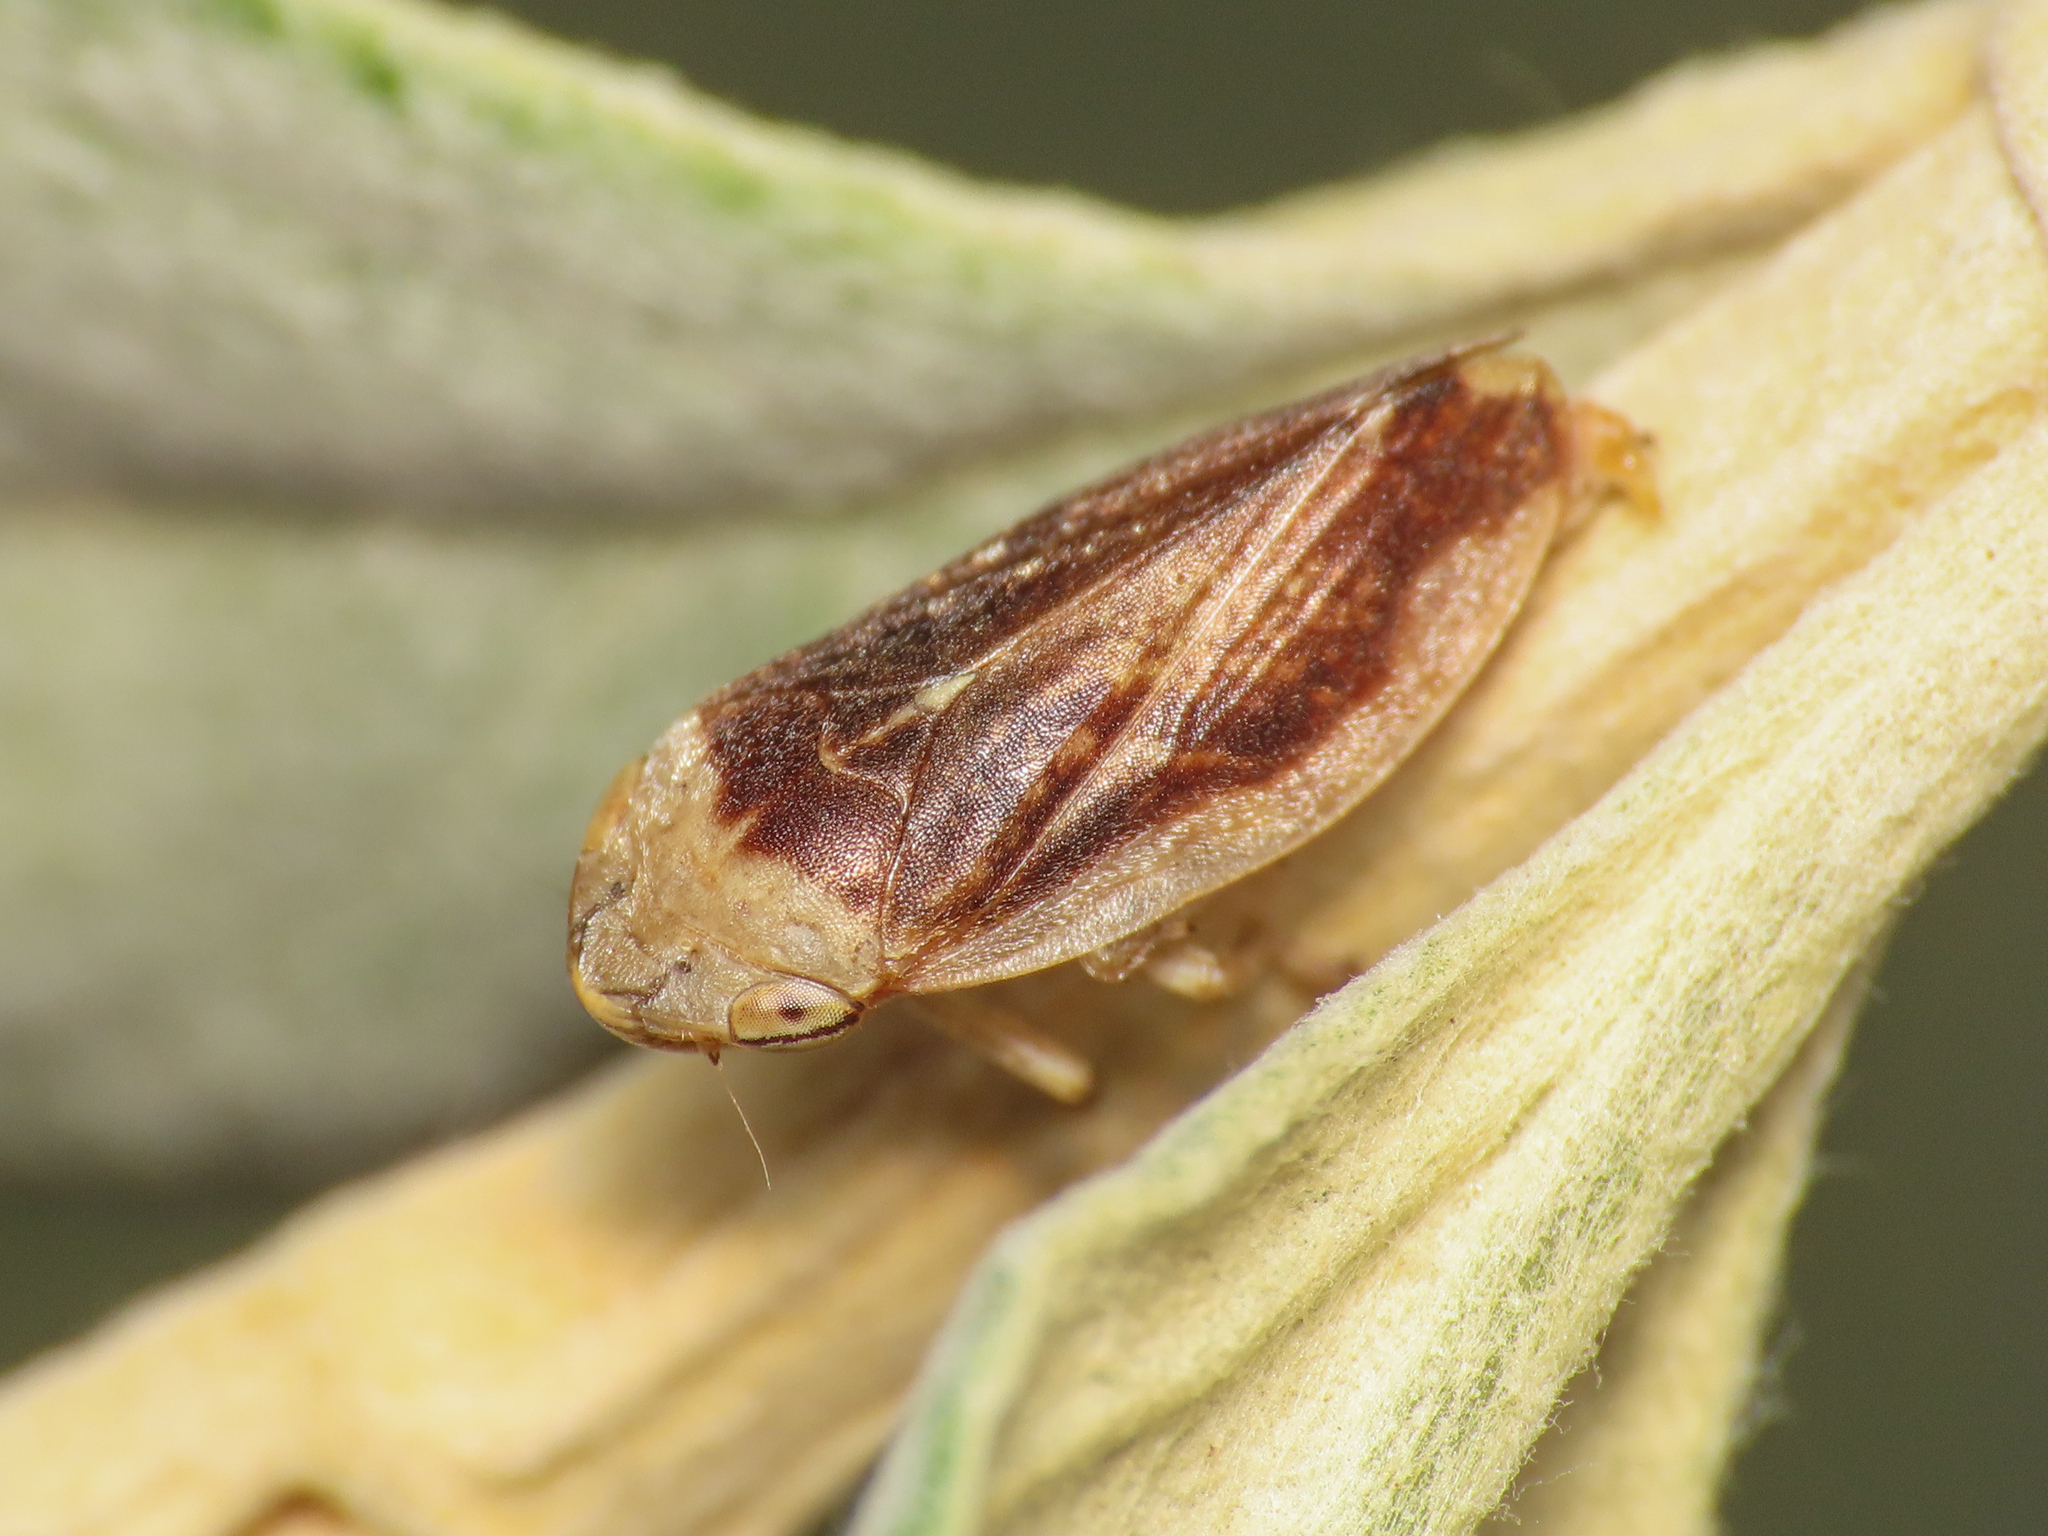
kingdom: Animalia
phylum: Arthropoda
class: Insecta
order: Hemiptera
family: Aphrophoridae
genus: Philaenus
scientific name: Philaenus spumarius
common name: Meadow spittlebug
